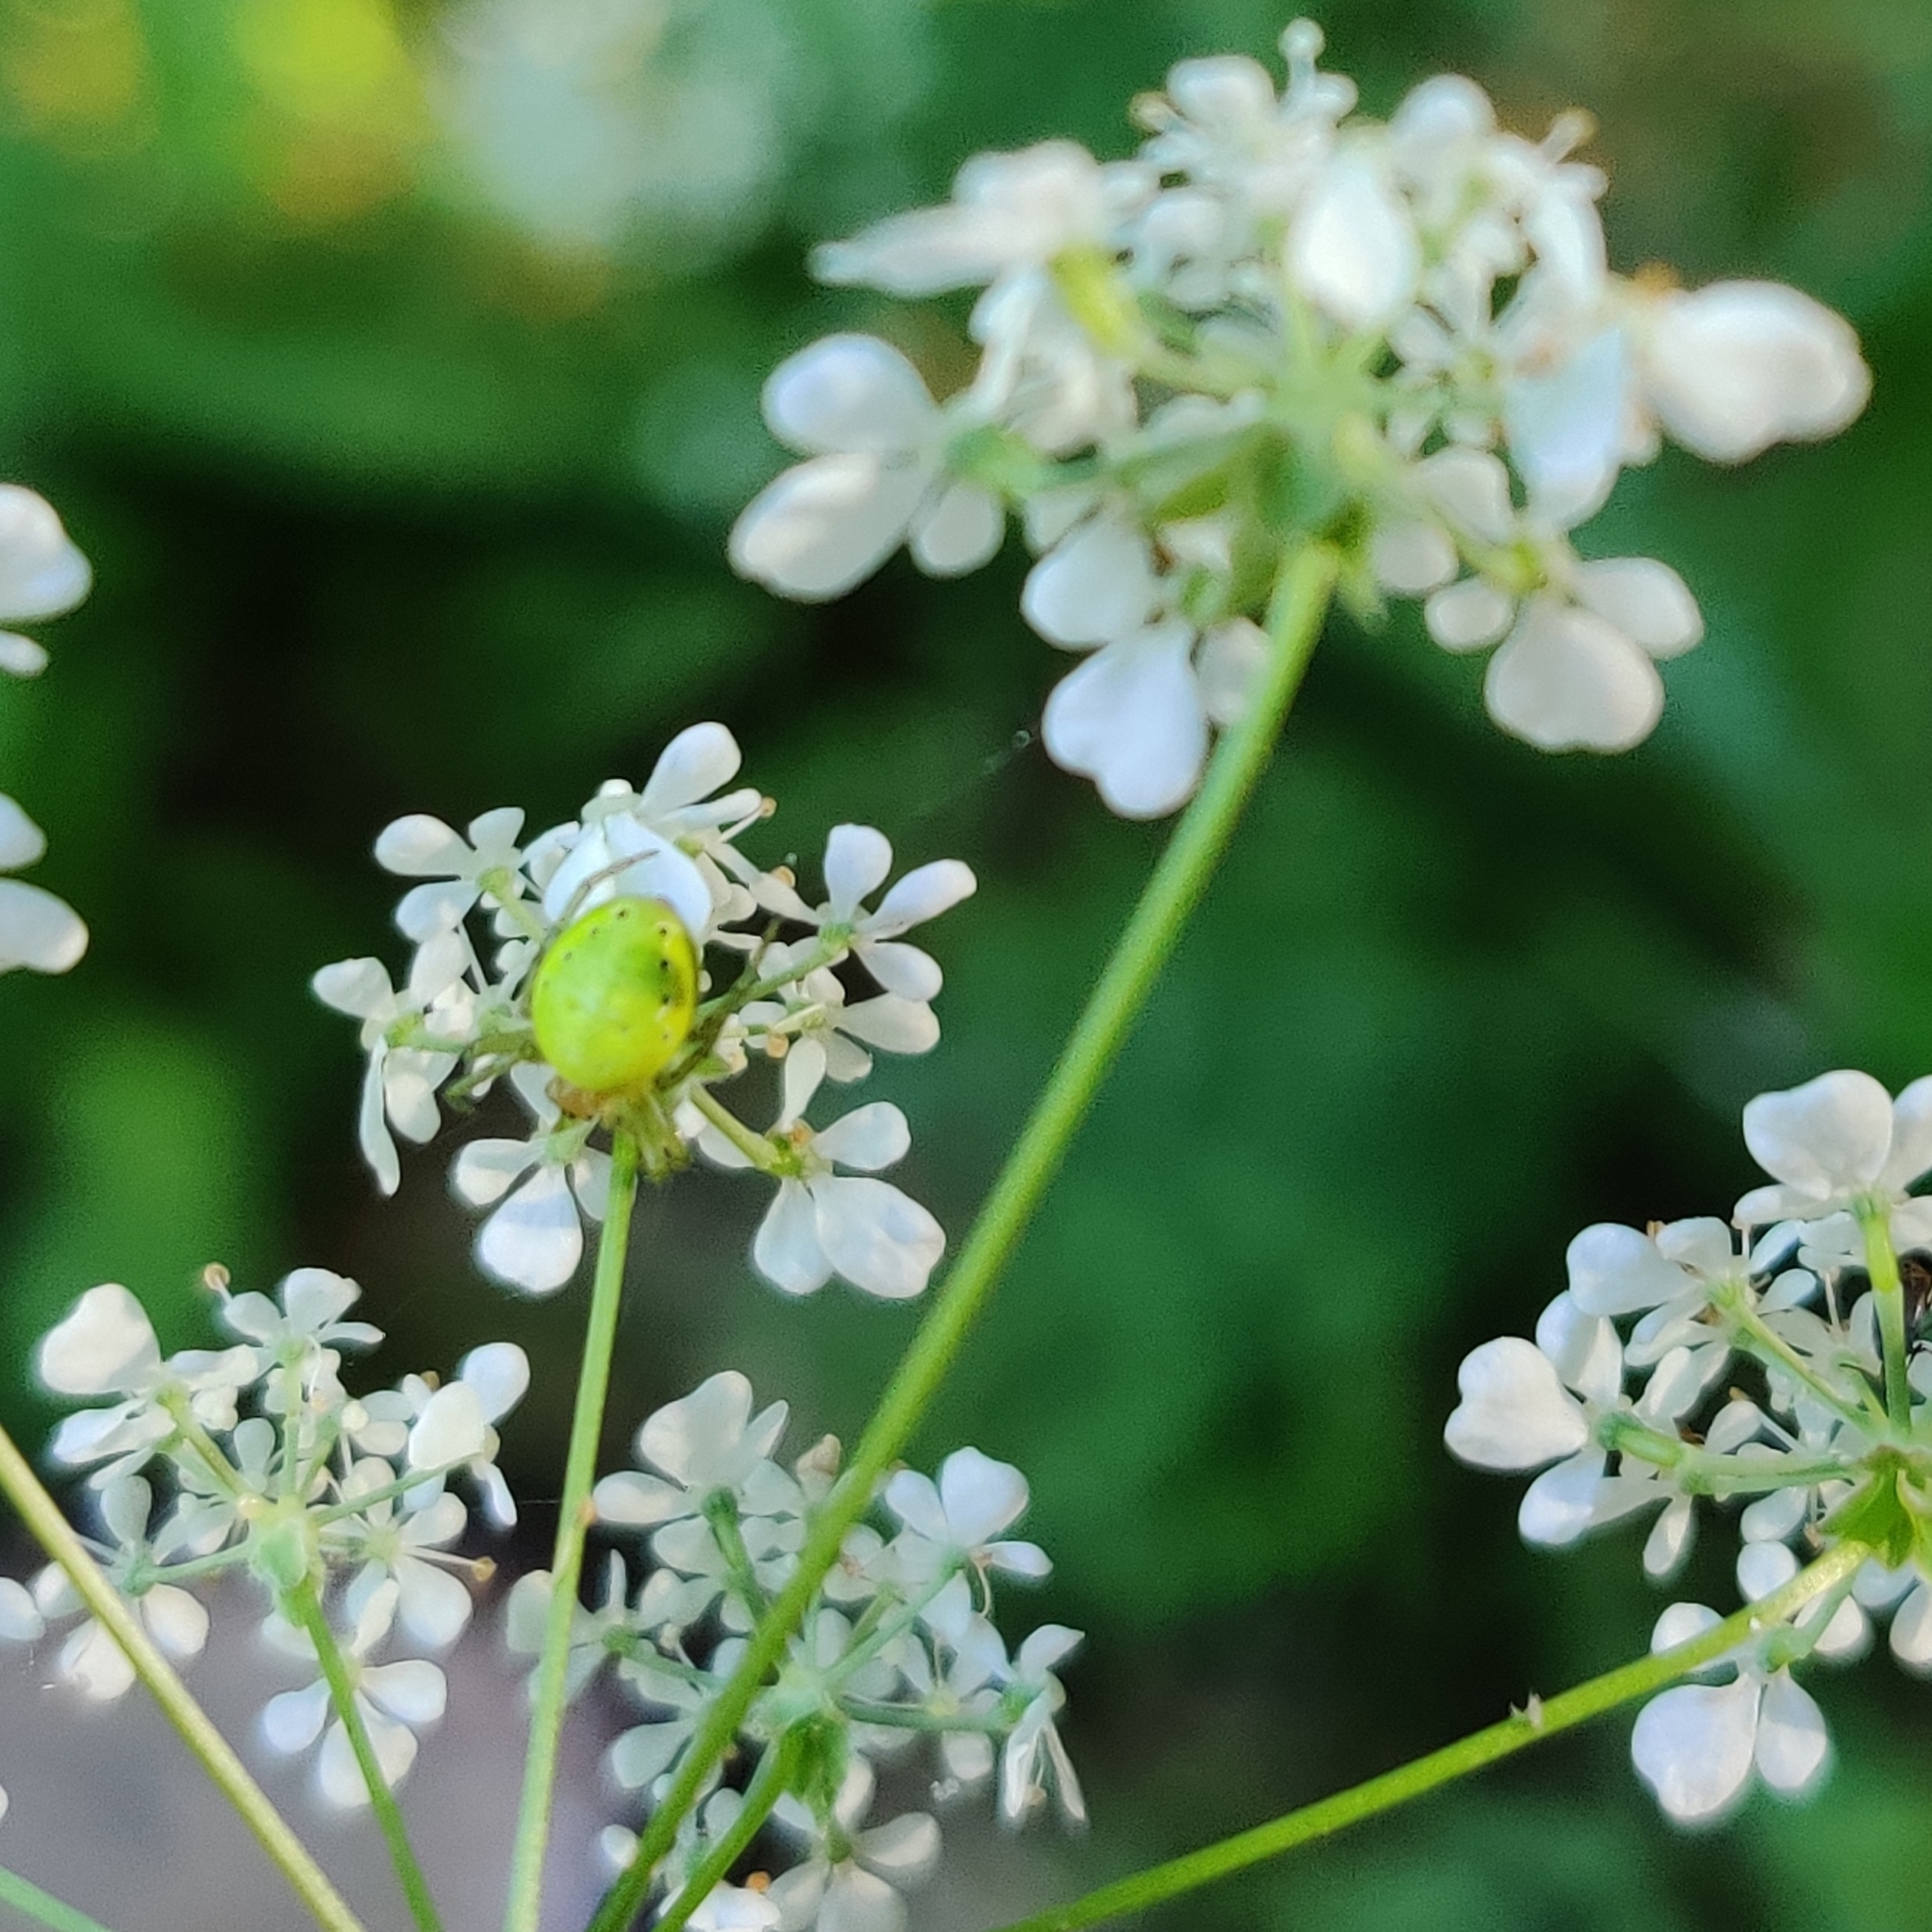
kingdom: Animalia
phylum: Arthropoda
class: Arachnida
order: Araneae
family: Araneidae
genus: Araniella
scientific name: Araniella
